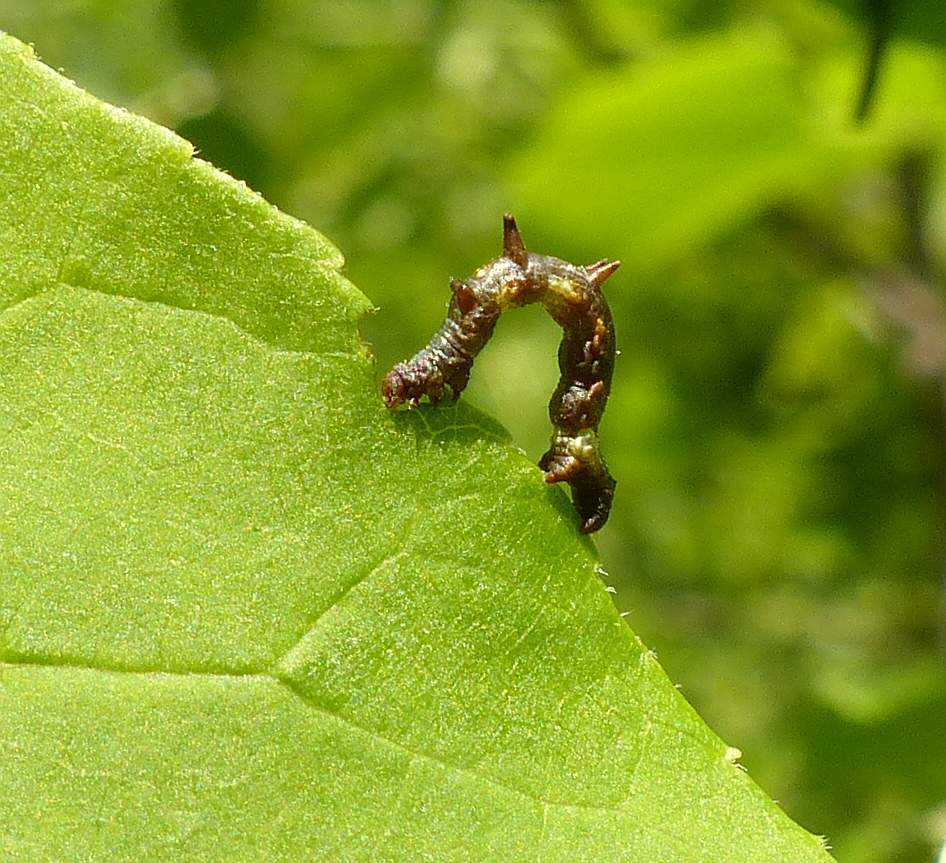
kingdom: Animalia
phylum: Arthropoda
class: Insecta
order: Lepidoptera
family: Geometridae
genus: Nematocampa
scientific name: Nematocampa resistaria
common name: Horned spanworm moth
